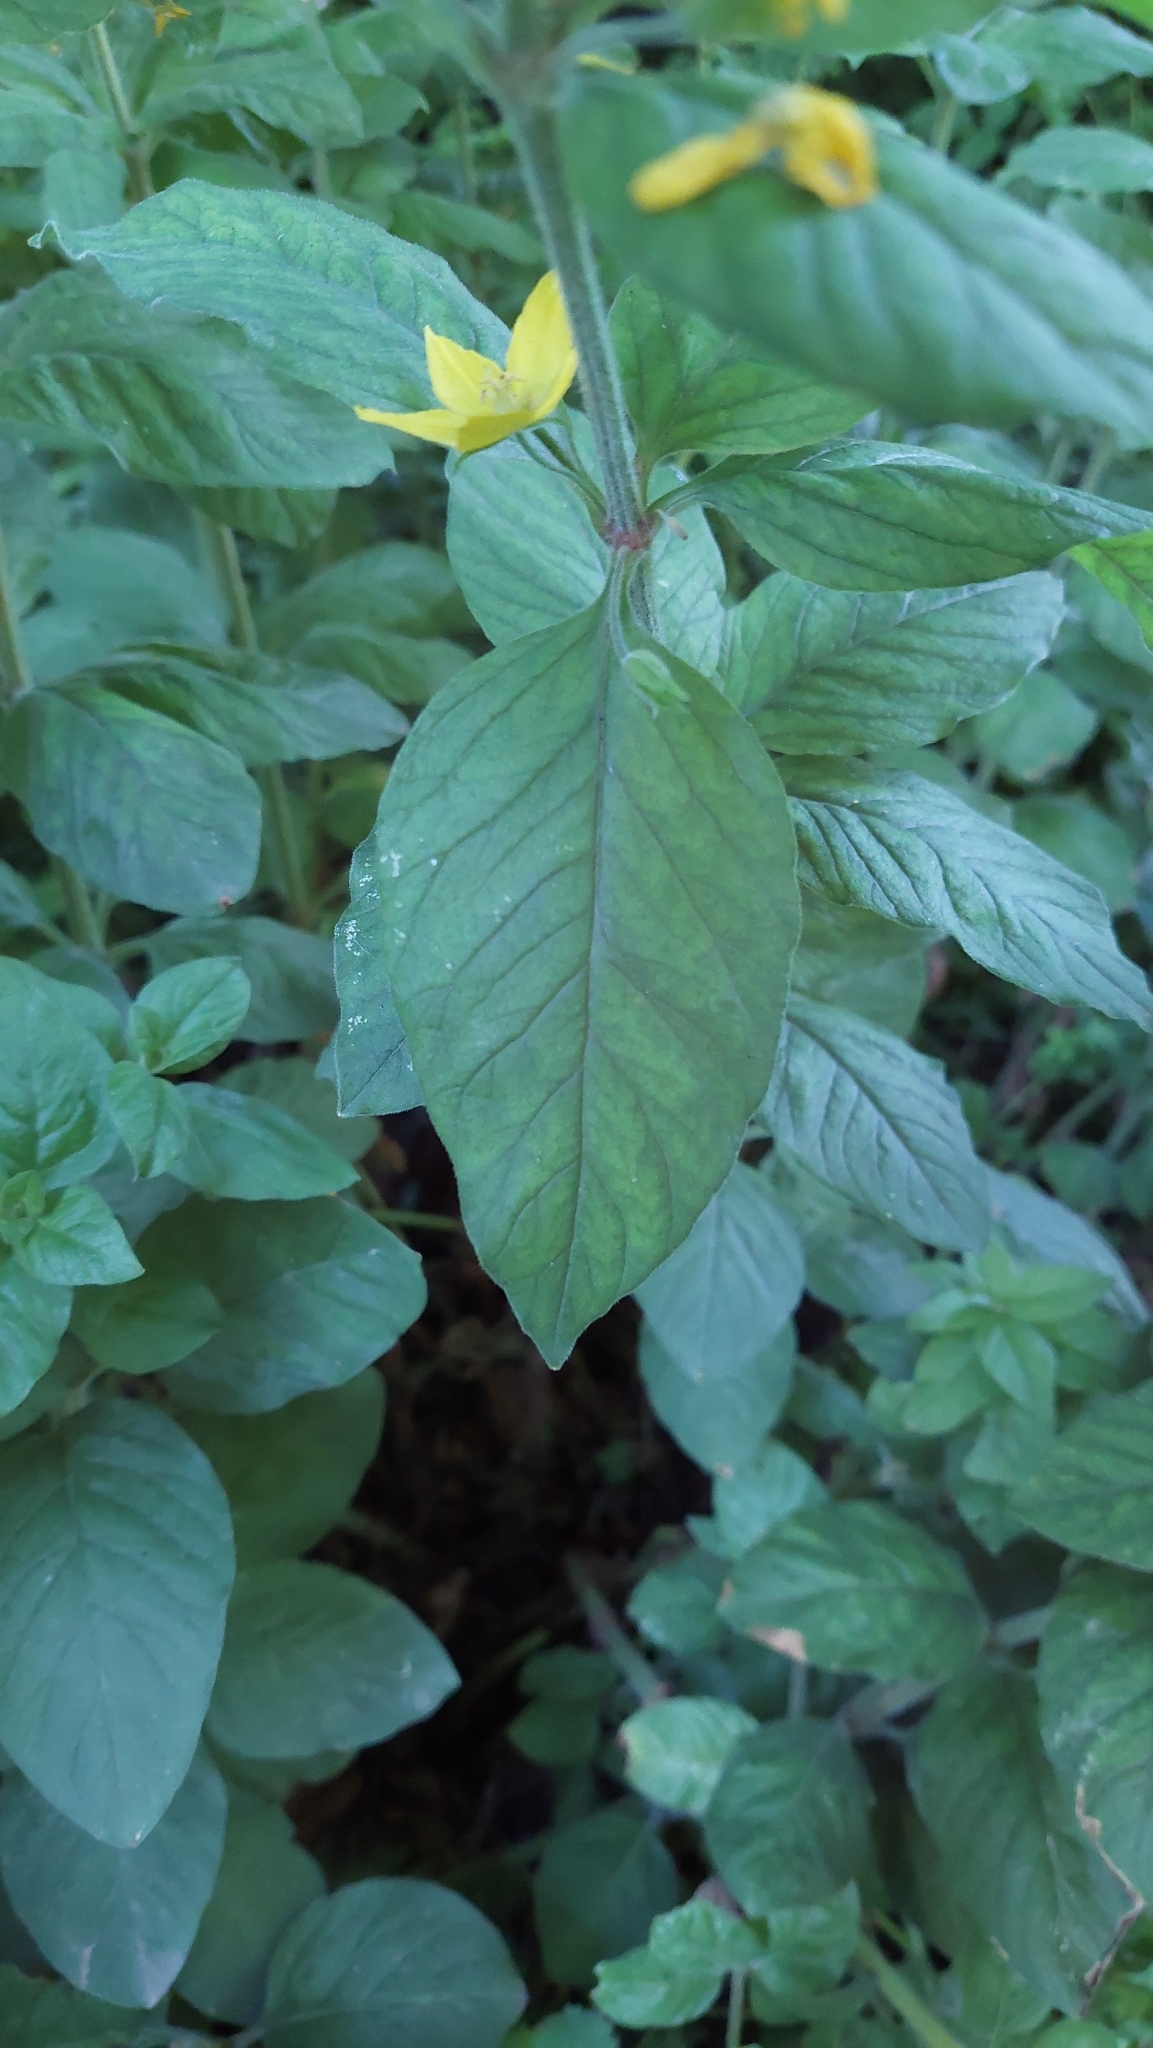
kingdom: Plantae
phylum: Tracheophyta
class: Magnoliopsida
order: Ericales
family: Primulaceae
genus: Lysimachia
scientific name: Lysimachia punctata
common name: Dotted loosestrife
